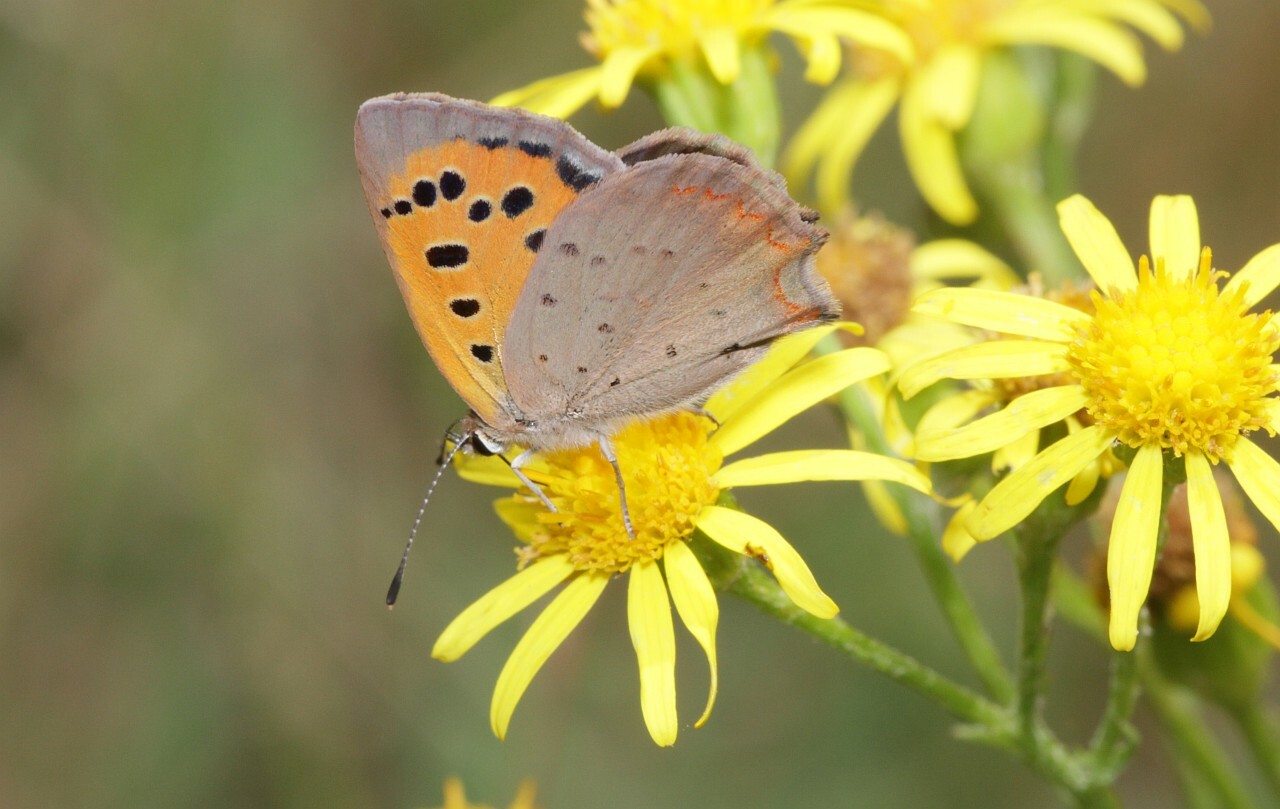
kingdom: Animalia
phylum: Arthropoda
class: Insecta
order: Lepidoptera
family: Lycaenidae
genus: Lycaena
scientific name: Lycaena phlaeas
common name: Small copper
